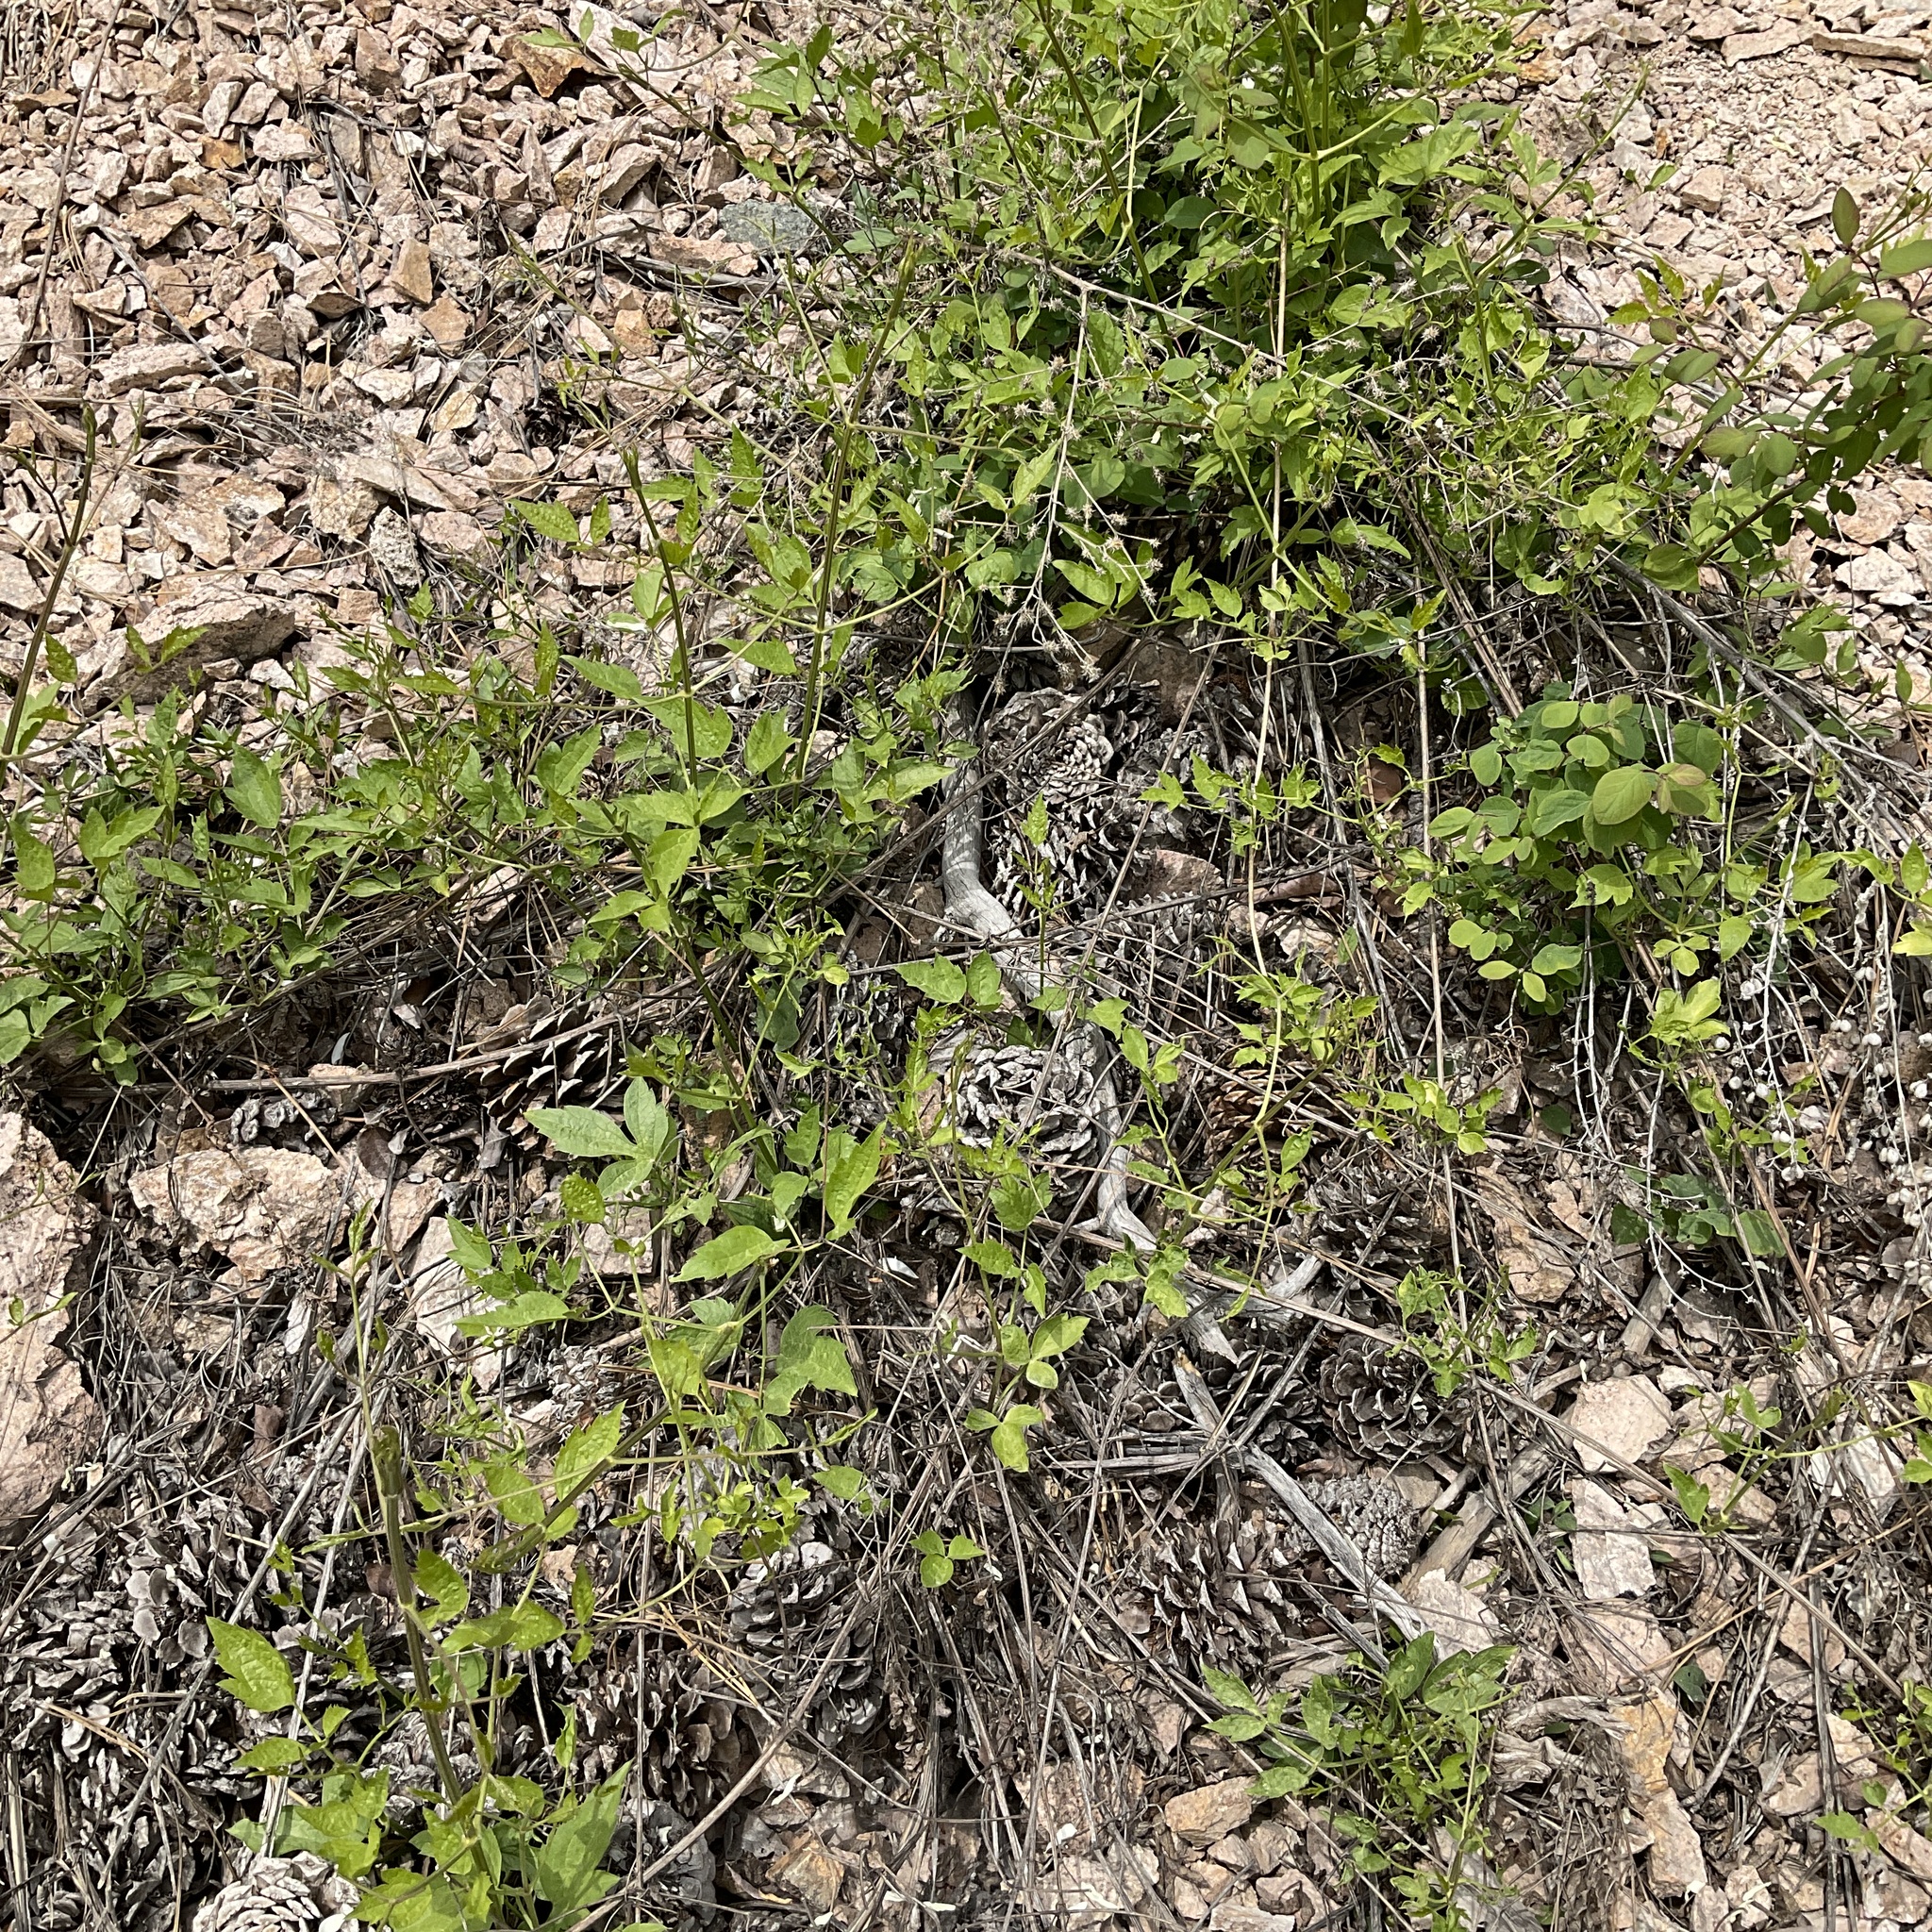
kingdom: Plantae
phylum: Tracheophyta
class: Magnoliopsida
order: Ranunculales
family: Ranunculaceae
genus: Clematis
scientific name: Clematis ligusticifolia
